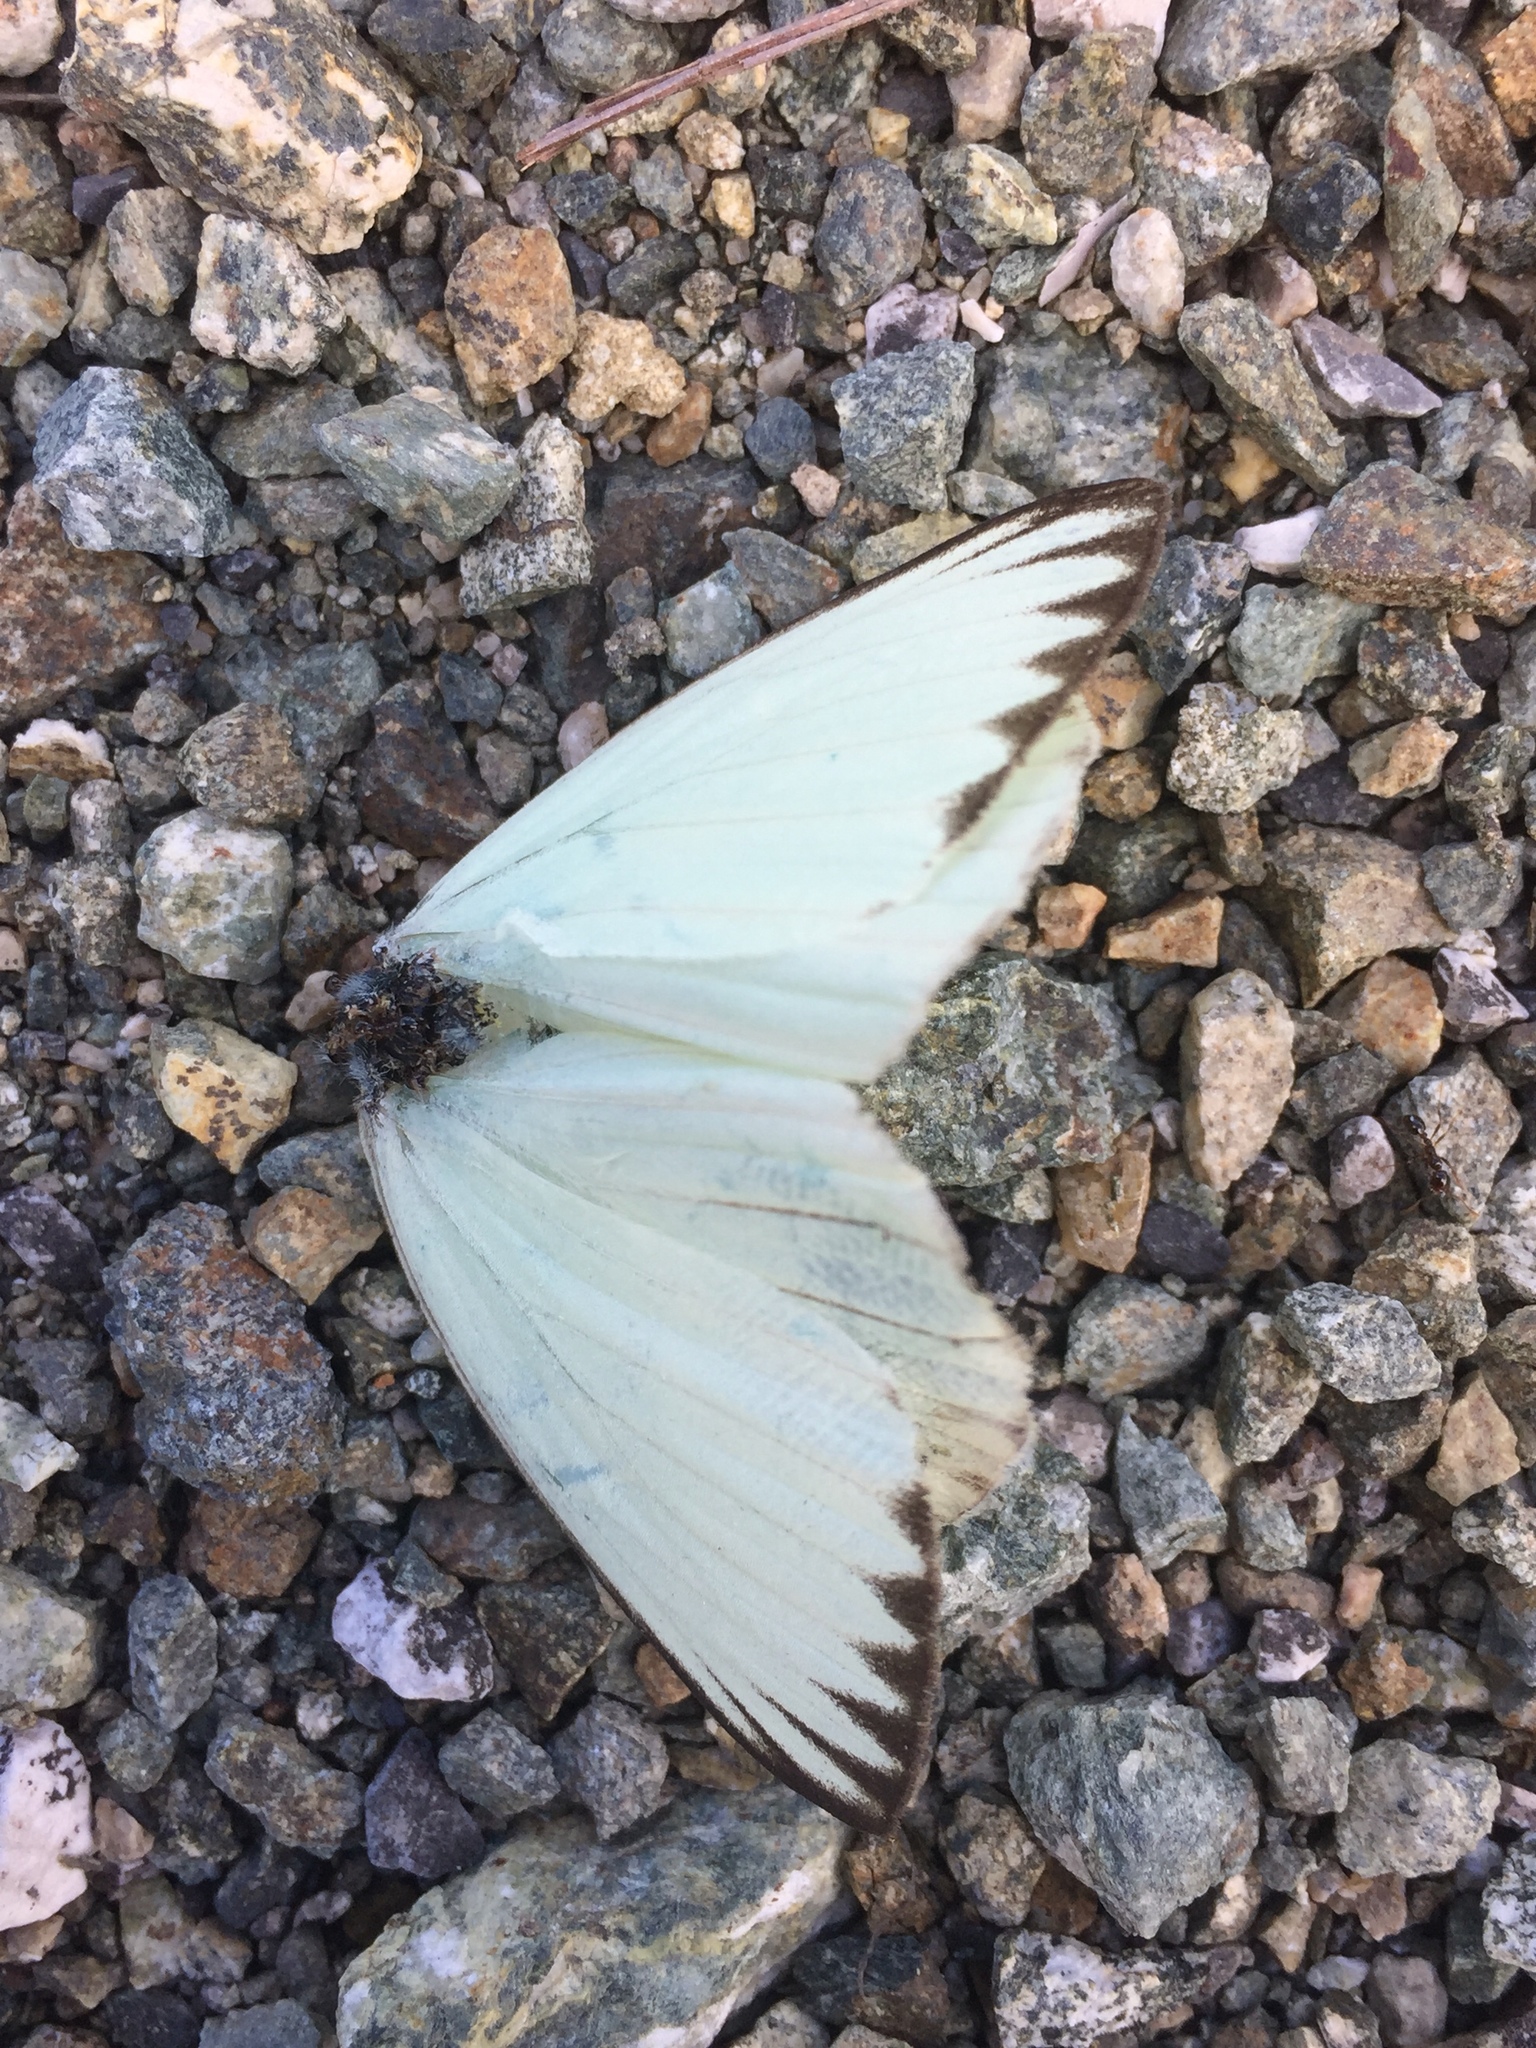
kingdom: Animalia
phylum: Arthropoda
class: Insecta
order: Lepidoptera
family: Pieridae
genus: Ascia
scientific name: Ascia monuste
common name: Great southern white
